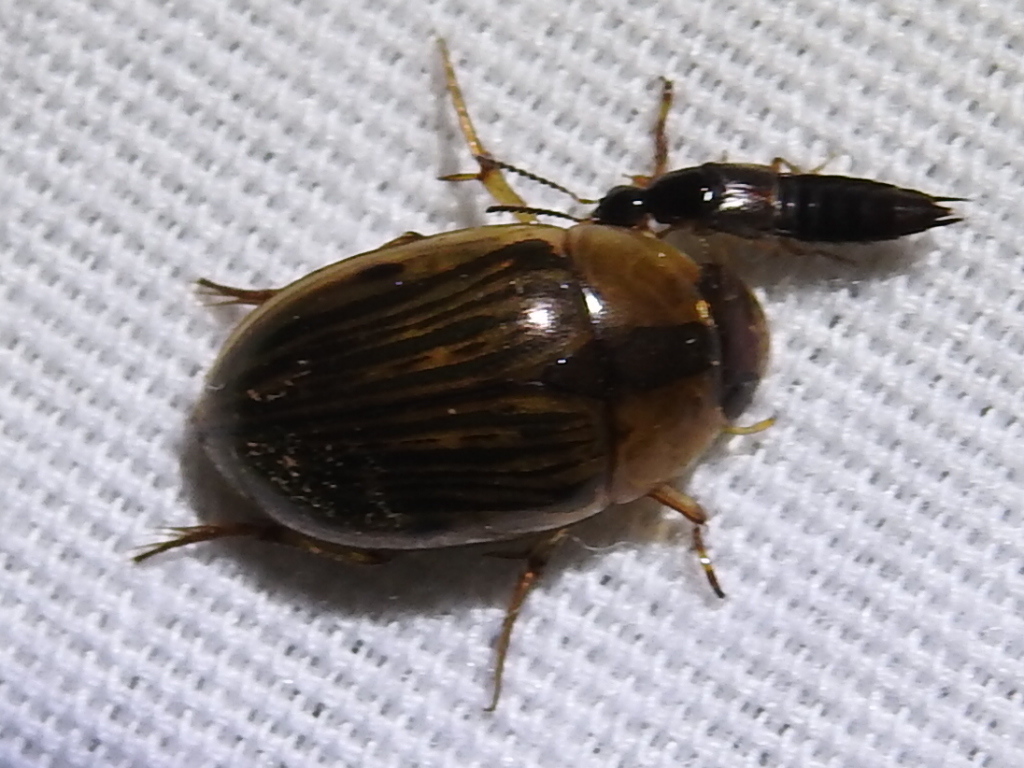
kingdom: Animalia
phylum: Arthropoda
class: Insecta
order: Coleoptera
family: Hydrophilidae
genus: Tropisternus
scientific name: Tropisternus collaris
